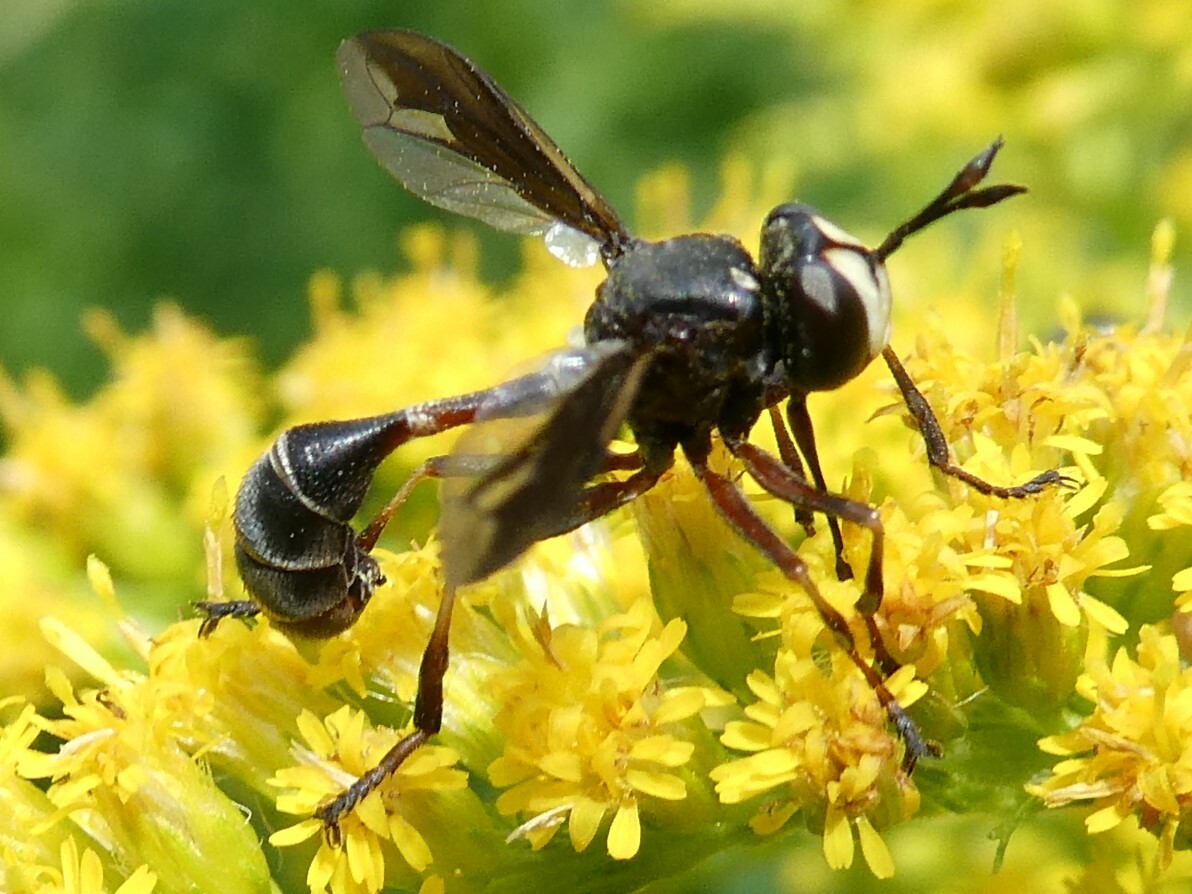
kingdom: Animalia
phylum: Arthropoda
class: Insecta
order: Diptera
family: Conopidae
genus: Physocephala
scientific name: Physocephala furcillata
